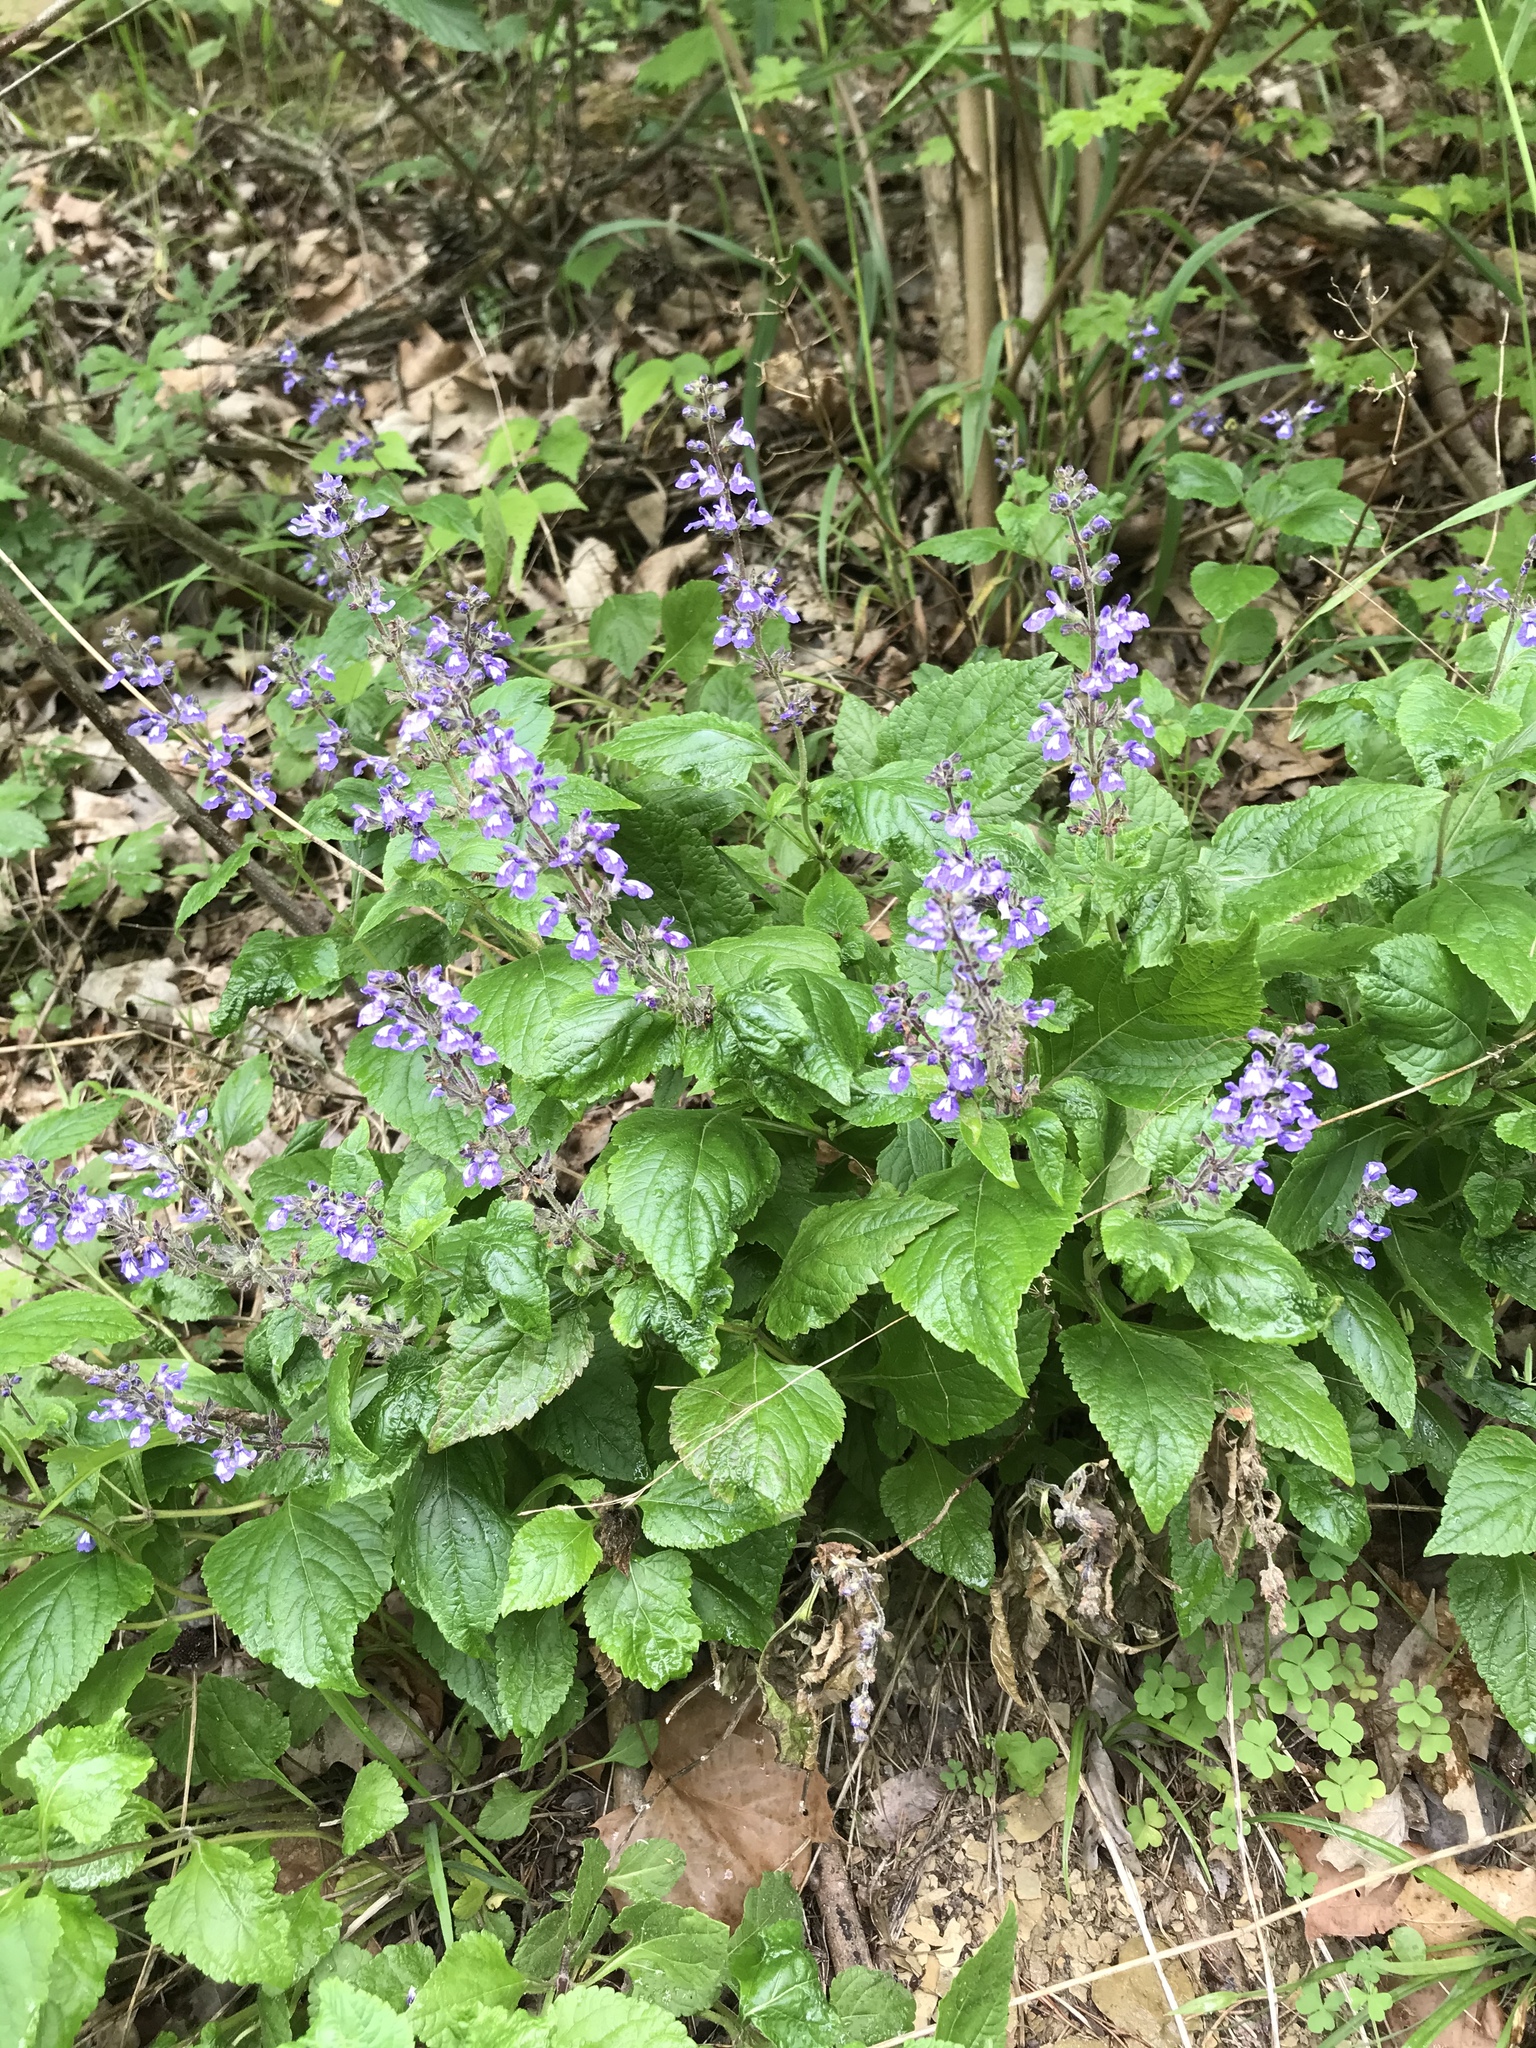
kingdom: Plantae
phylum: Tracheophyta
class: Magnoliopsida
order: Lamiales
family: Lamiaceae
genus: Salvia
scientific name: Salvia urticifolia
